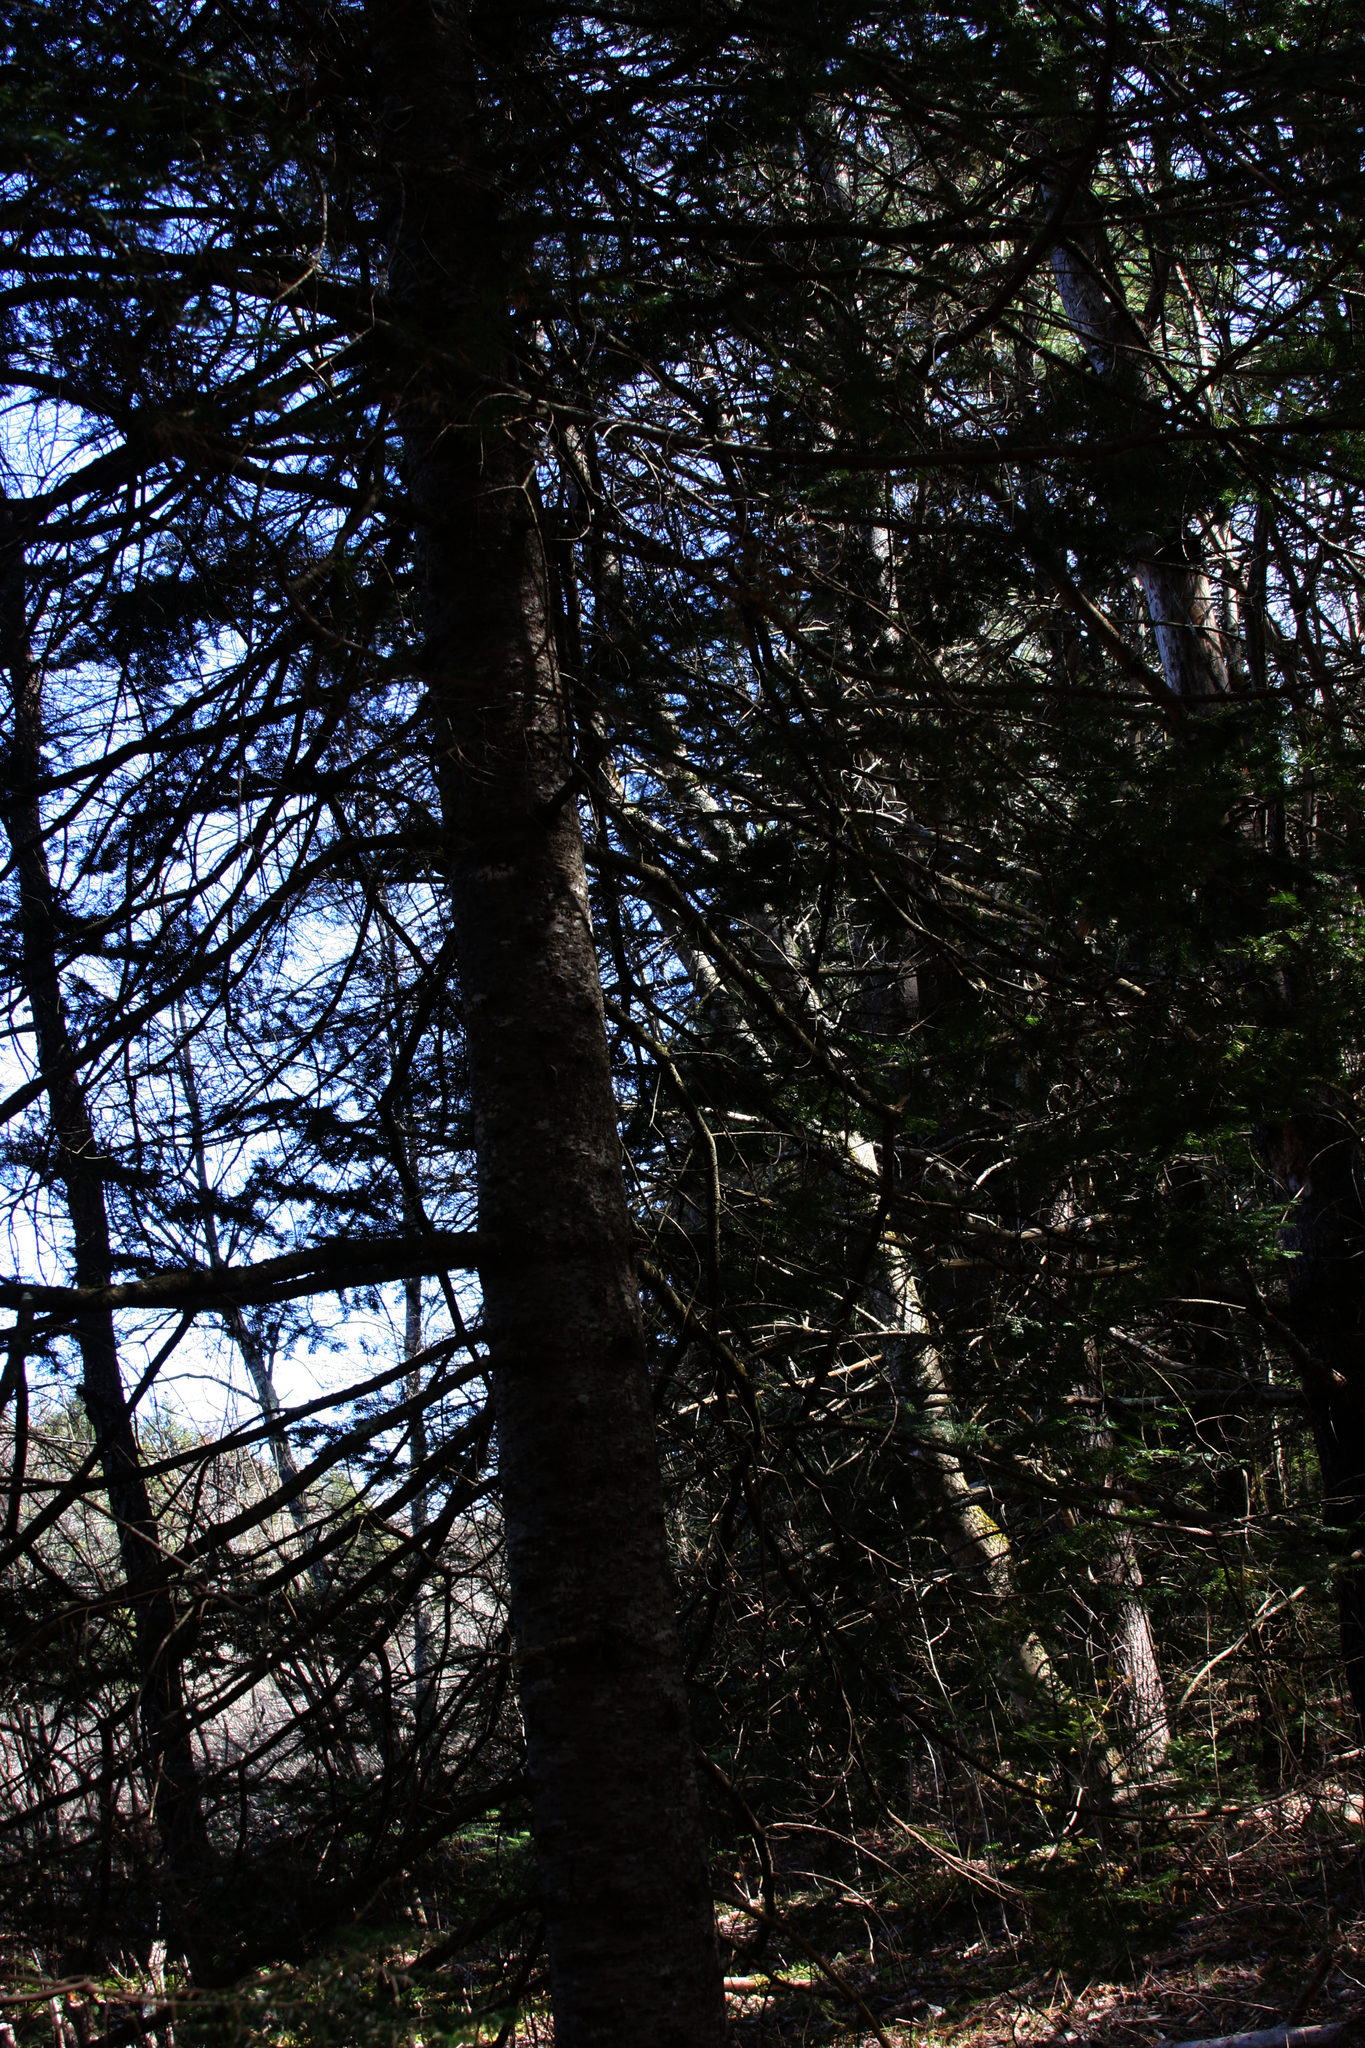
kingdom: Plantae
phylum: Tracheophyta
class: Pinopsida
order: Pinales
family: Pinaceae
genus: Abies
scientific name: Abies balsamea
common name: Balsam fir
